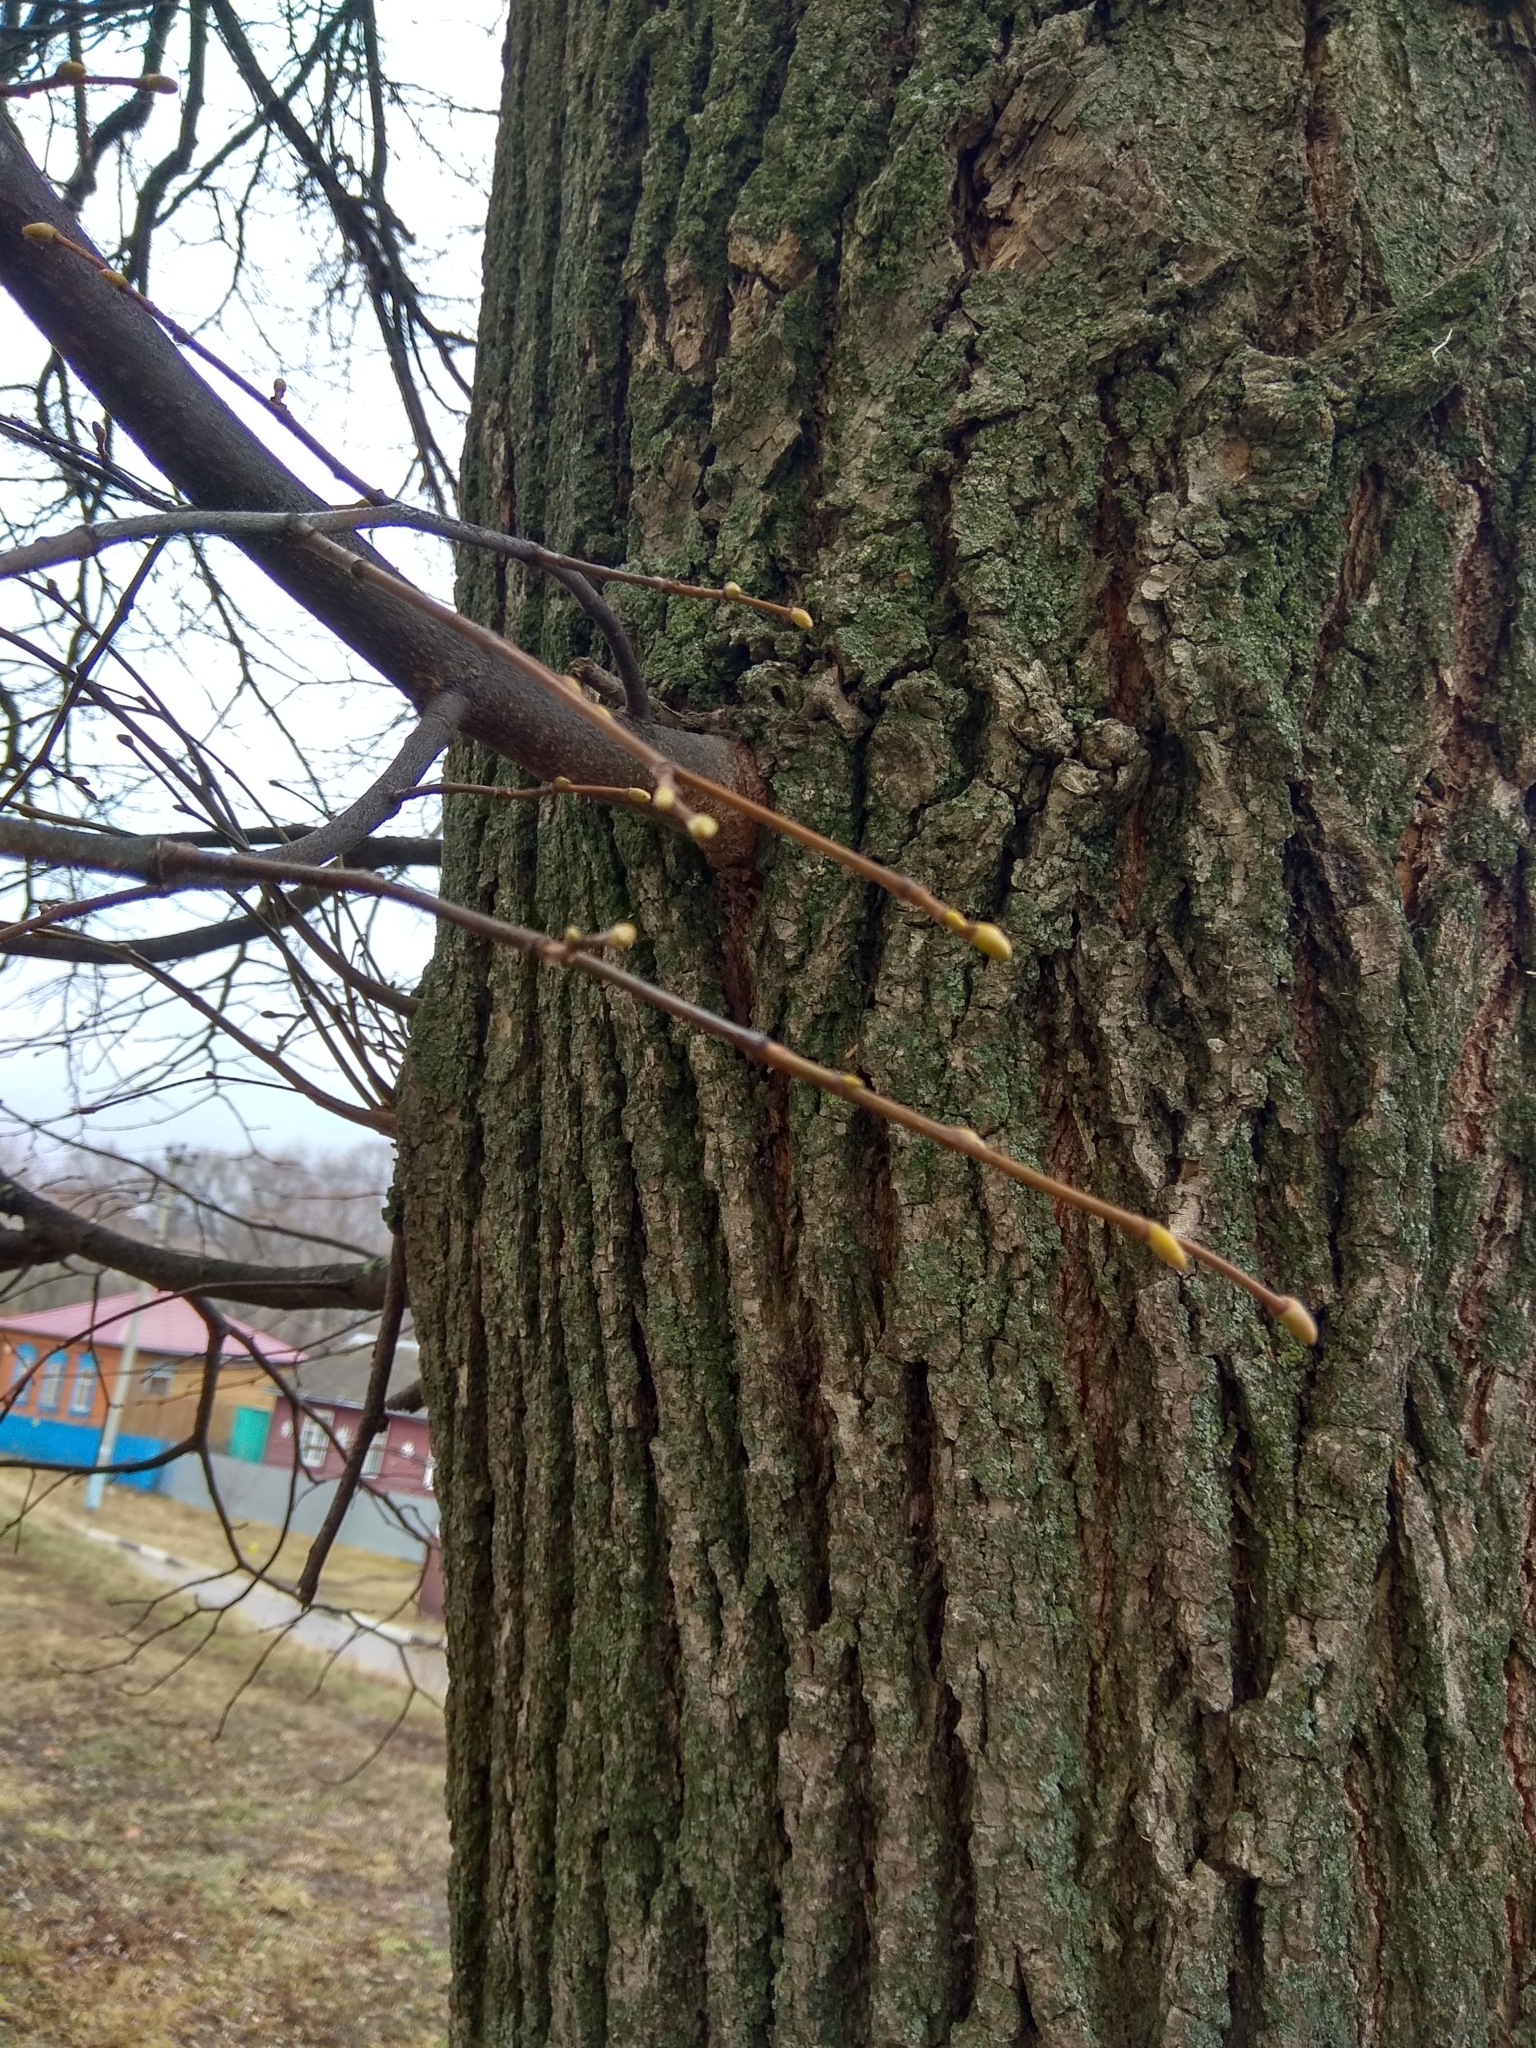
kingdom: Plantae
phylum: Tracheophyta
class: Magnoliopsida
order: Malvales
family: Malvaceae
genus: Tilia
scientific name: Tilia cordata
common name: Small-leaved lime
